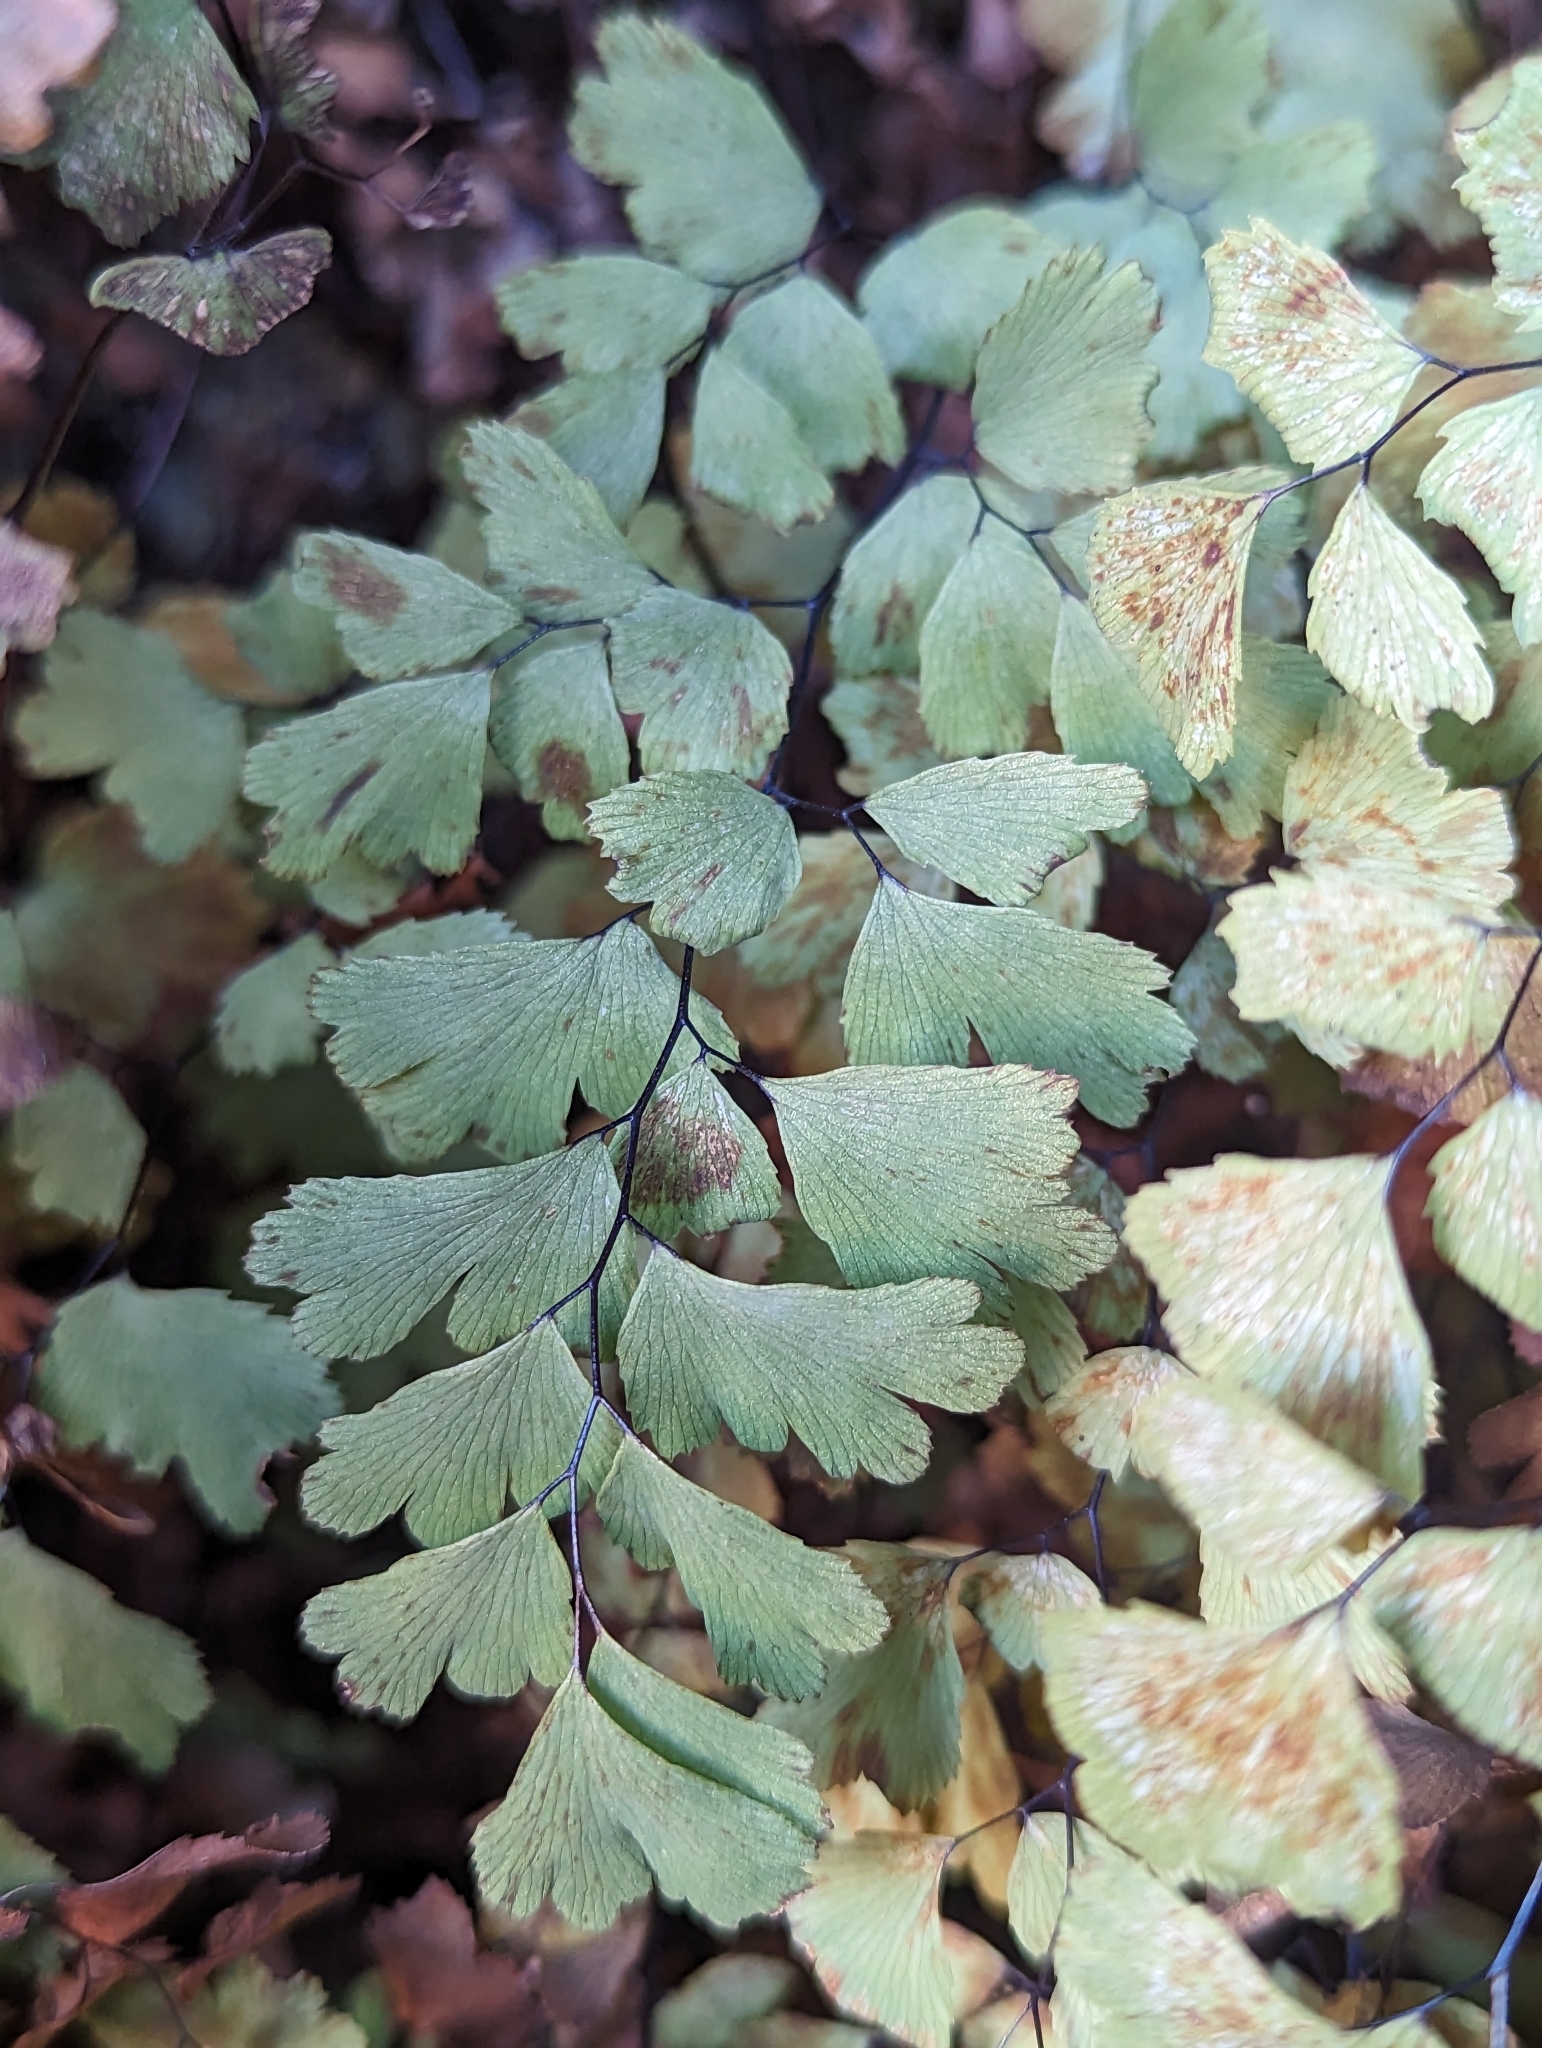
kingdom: Plantae
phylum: Tracheophyta
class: Polypodiopsida
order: Polypodiales
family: Pteridaceae
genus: Adiantum
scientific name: Adiantum capillus-veneris
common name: Maidenhair fern
